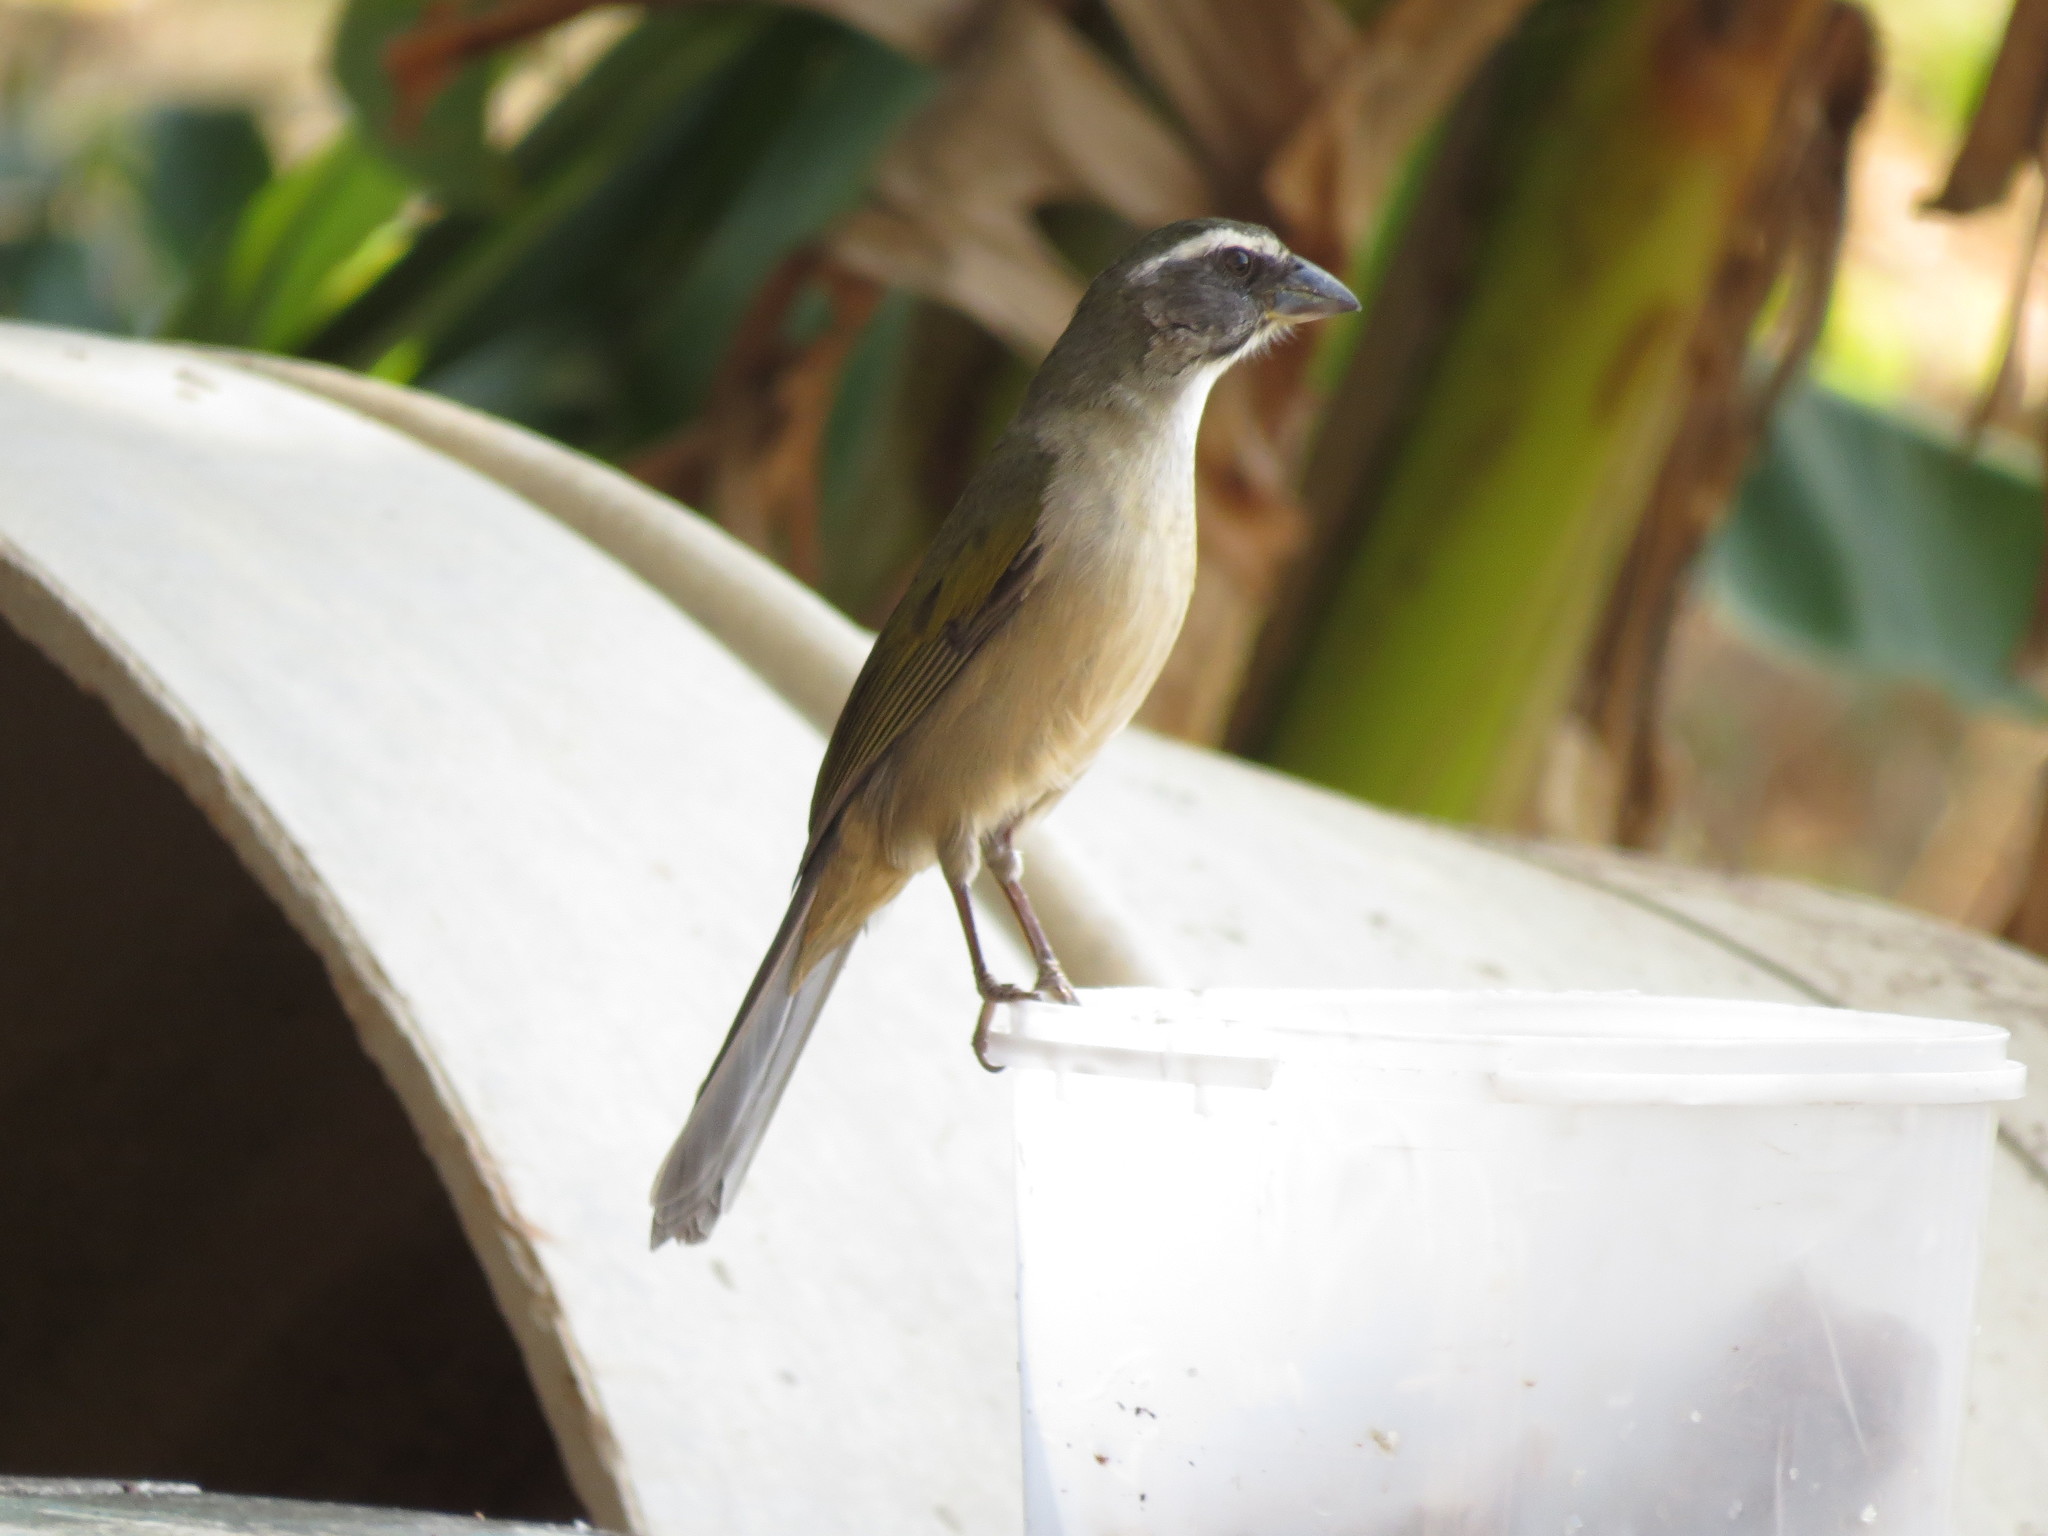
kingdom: Animalia
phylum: Chordata
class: Aves
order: Passeriformes
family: Thraupidae
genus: Saltator
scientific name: Saltator similis
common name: Green-winged saltator
